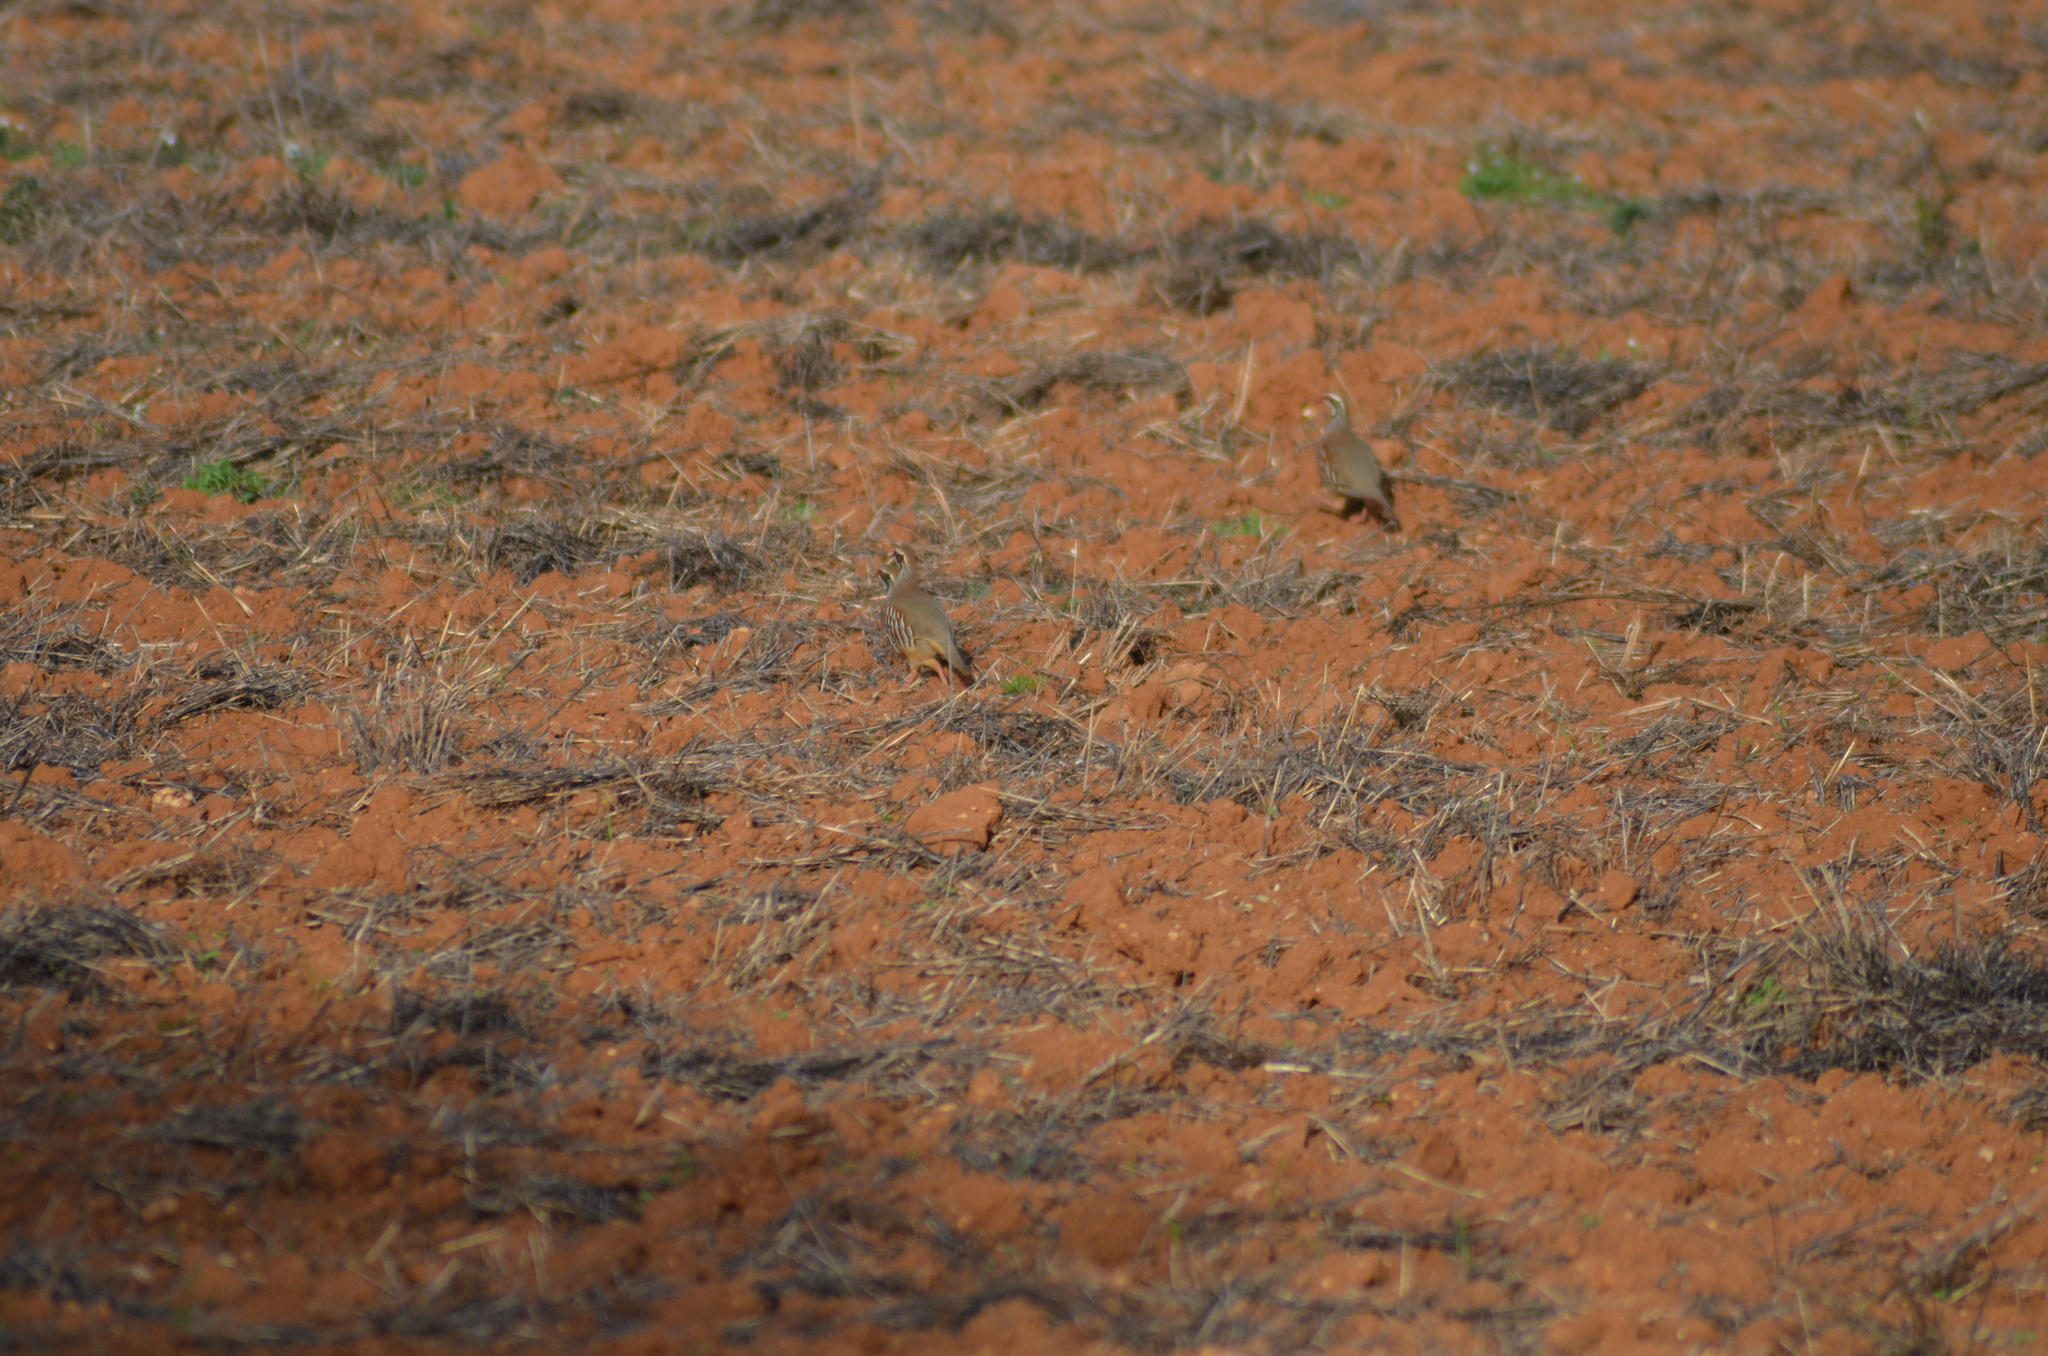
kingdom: Animalia
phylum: Chordata
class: Aves
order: Galliformes
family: Phasianidae
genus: Alectoris
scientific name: Alectoris rufa
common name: Red-legged partridge
